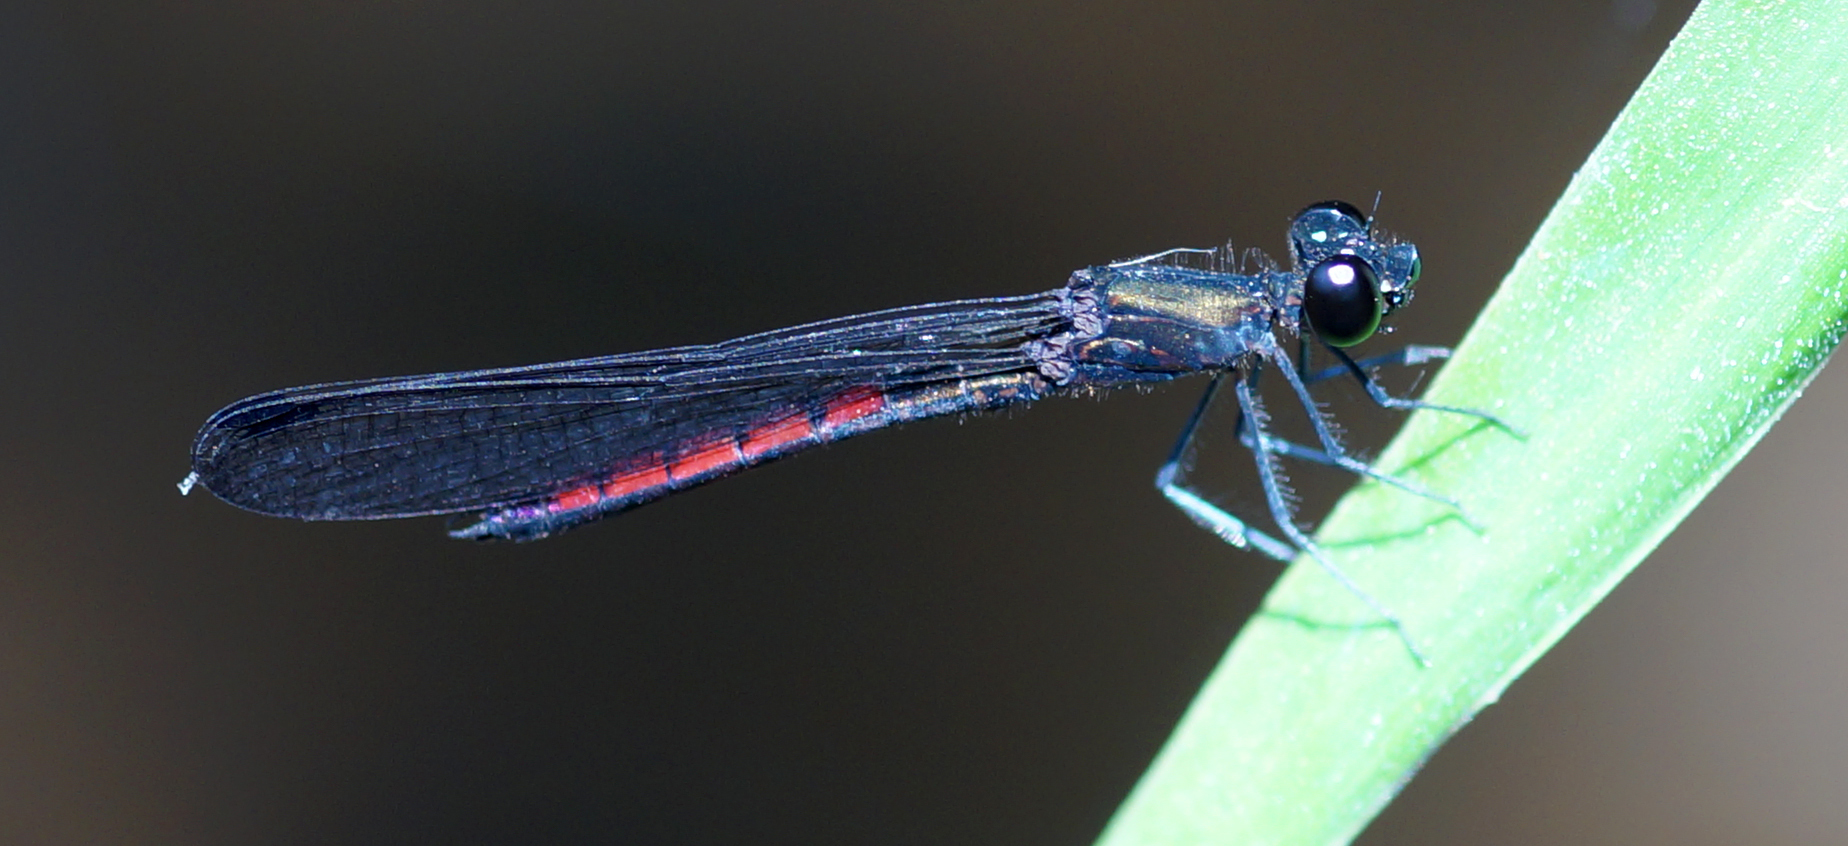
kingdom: Animalia
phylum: Arthropoda
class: Insecta
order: Odonata
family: Chlorocyphidae
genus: Libellago
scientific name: Libellago hyalina
